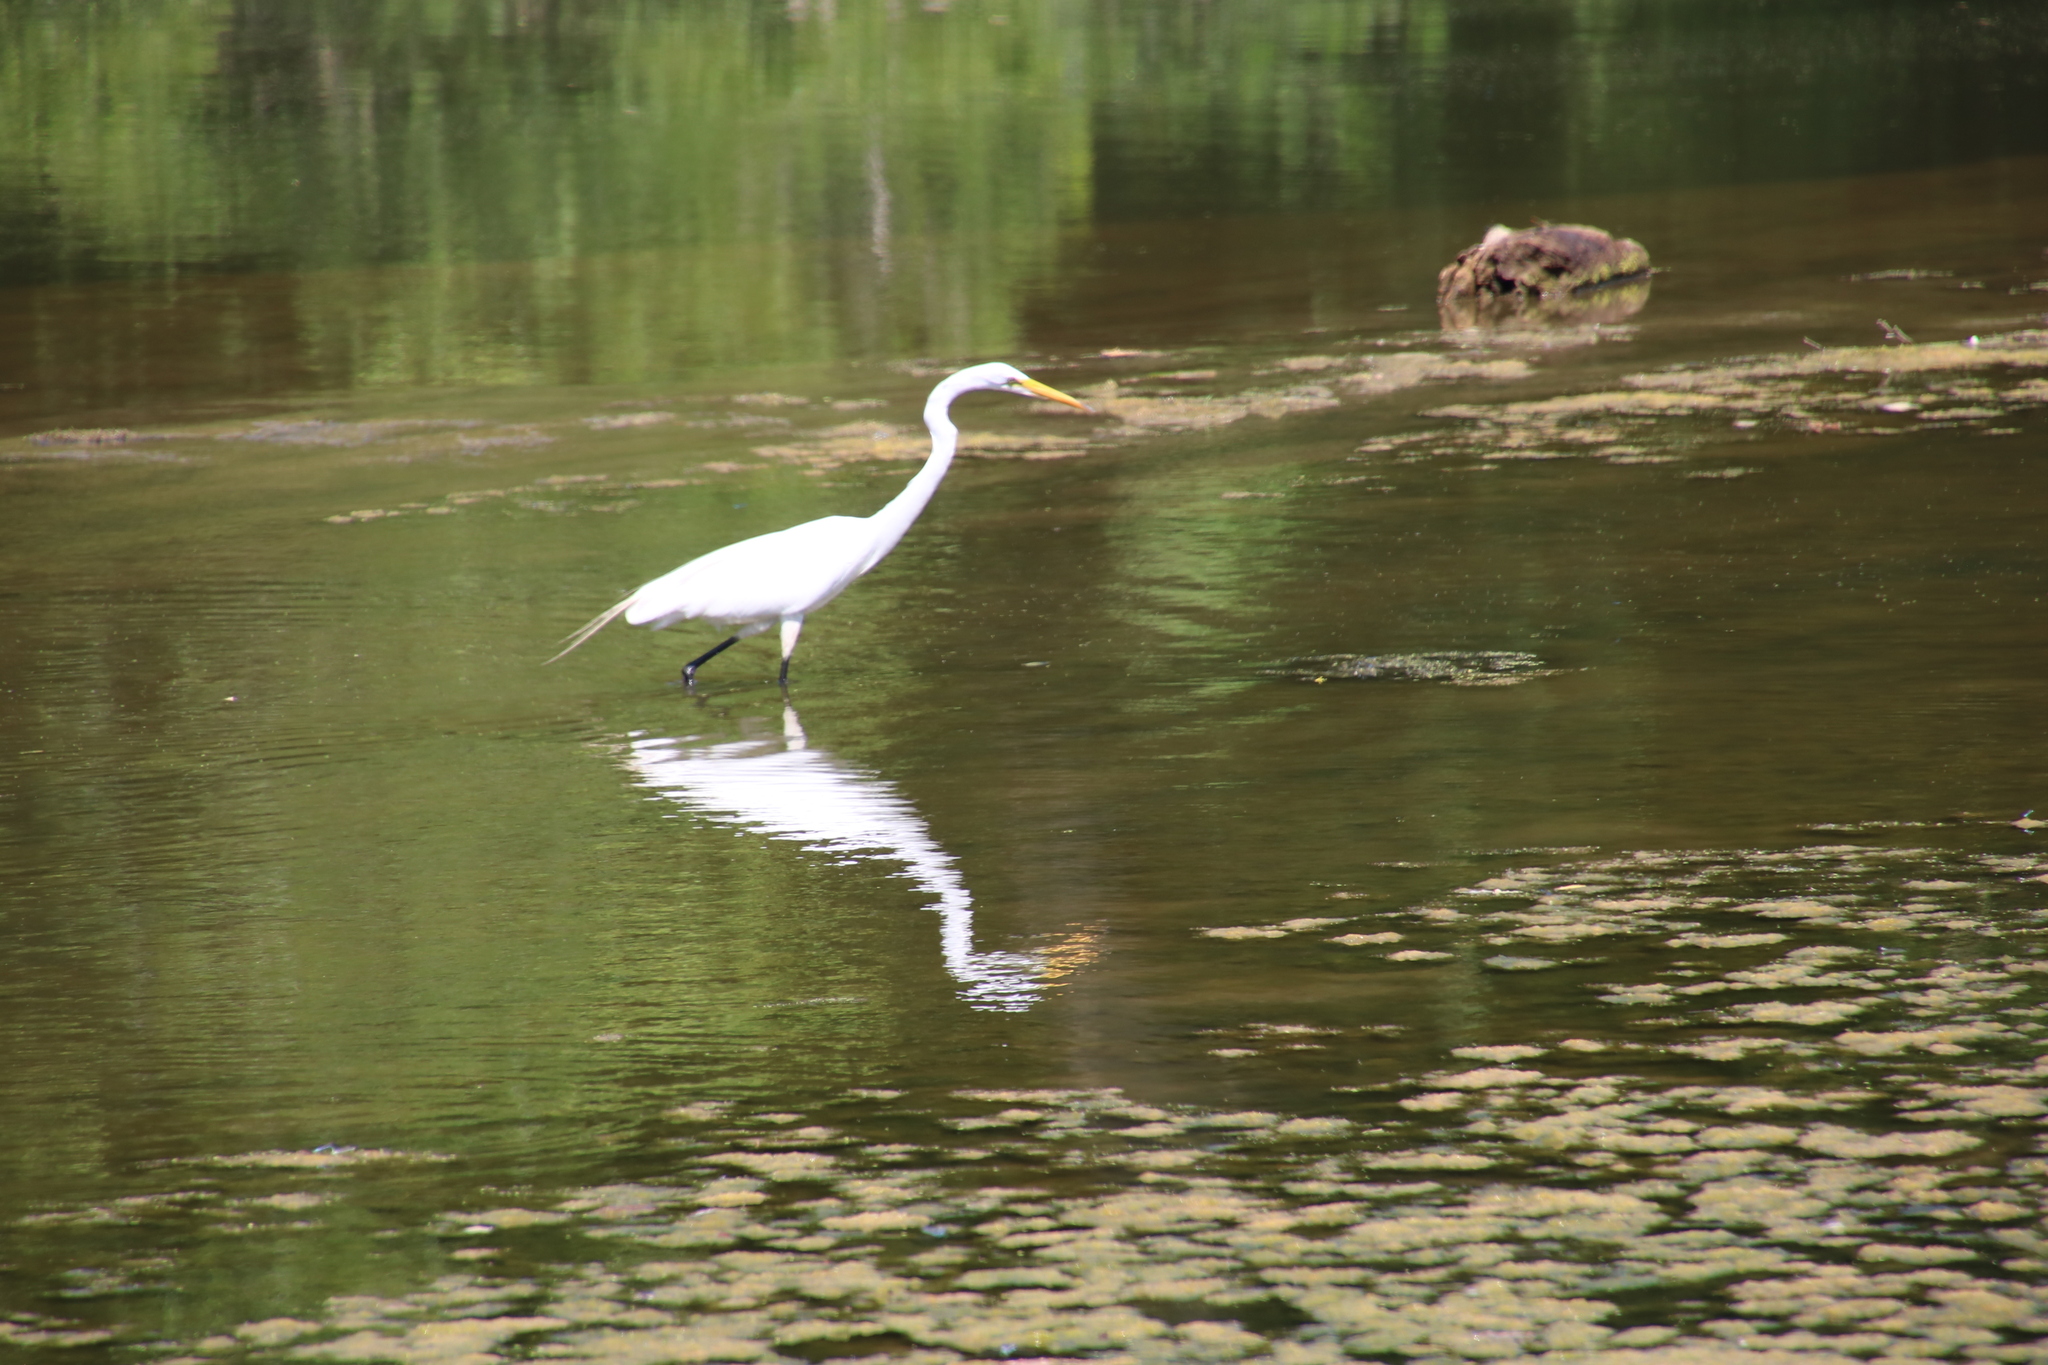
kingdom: Animalia
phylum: Chordata
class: Aves
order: Pelecaniformes
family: Ardeidae
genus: Ardea
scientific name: Ardea alba
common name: Great egret
